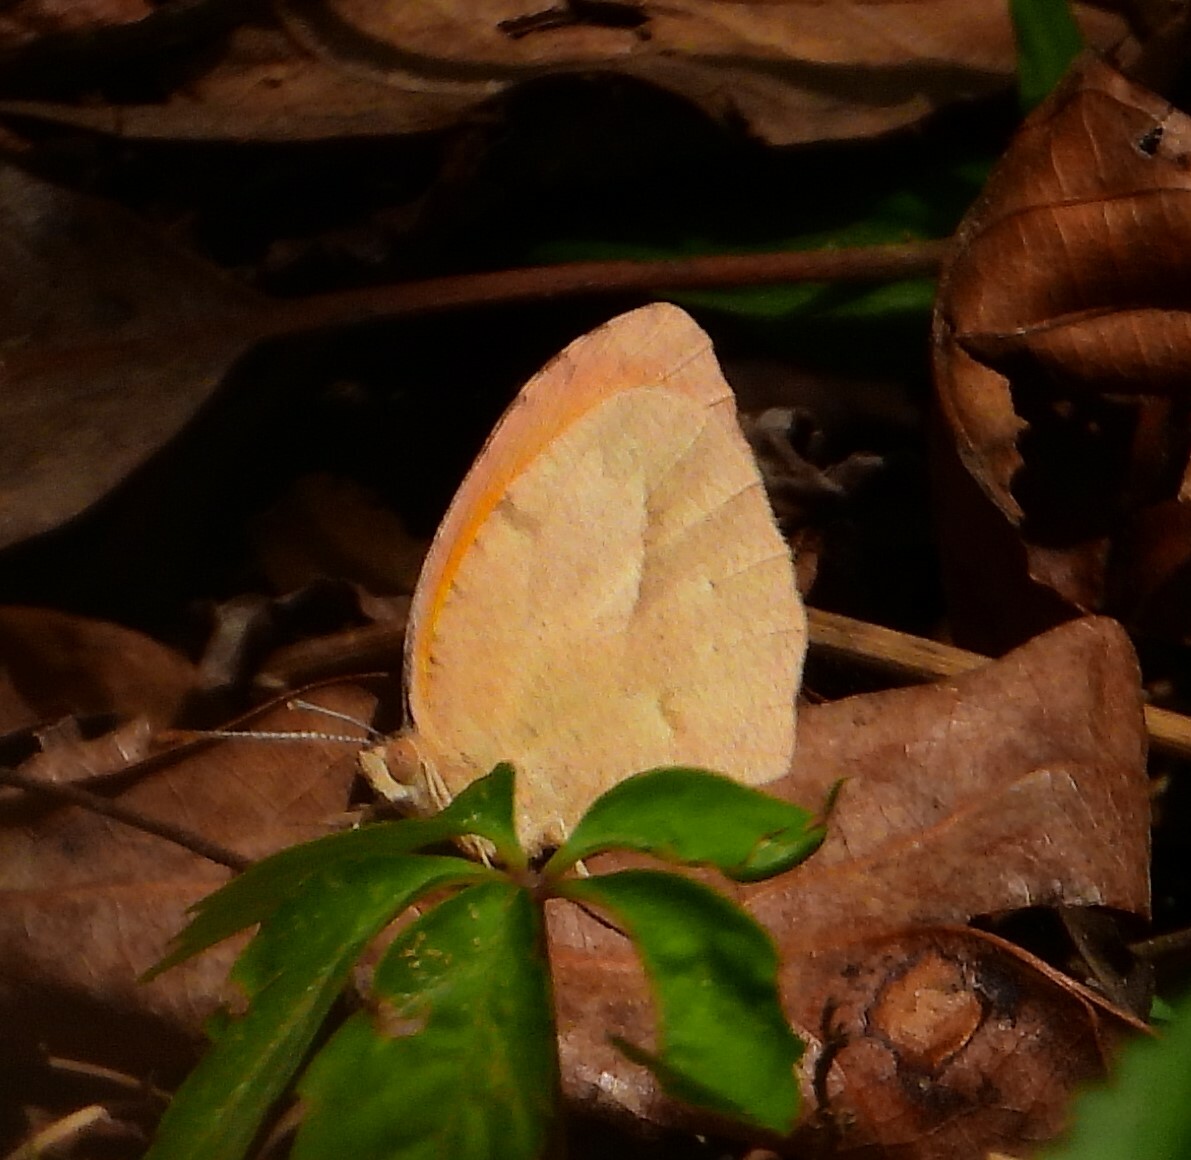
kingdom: Animalia
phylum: Arthropoda
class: Insecta
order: Lepidoptera
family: Pieridae
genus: Abaeis
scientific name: Abaeis nicippe
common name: Sleepy orange
